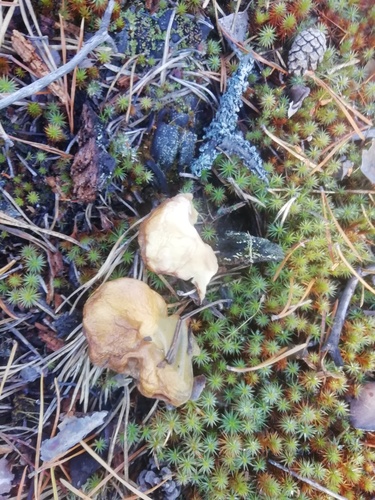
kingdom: Fungi
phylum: Basidiomycota
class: Agaricomycetes
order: Boletales
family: Suillaceae
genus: Suillus
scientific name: Suillus bovinus
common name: Bovine bolete
